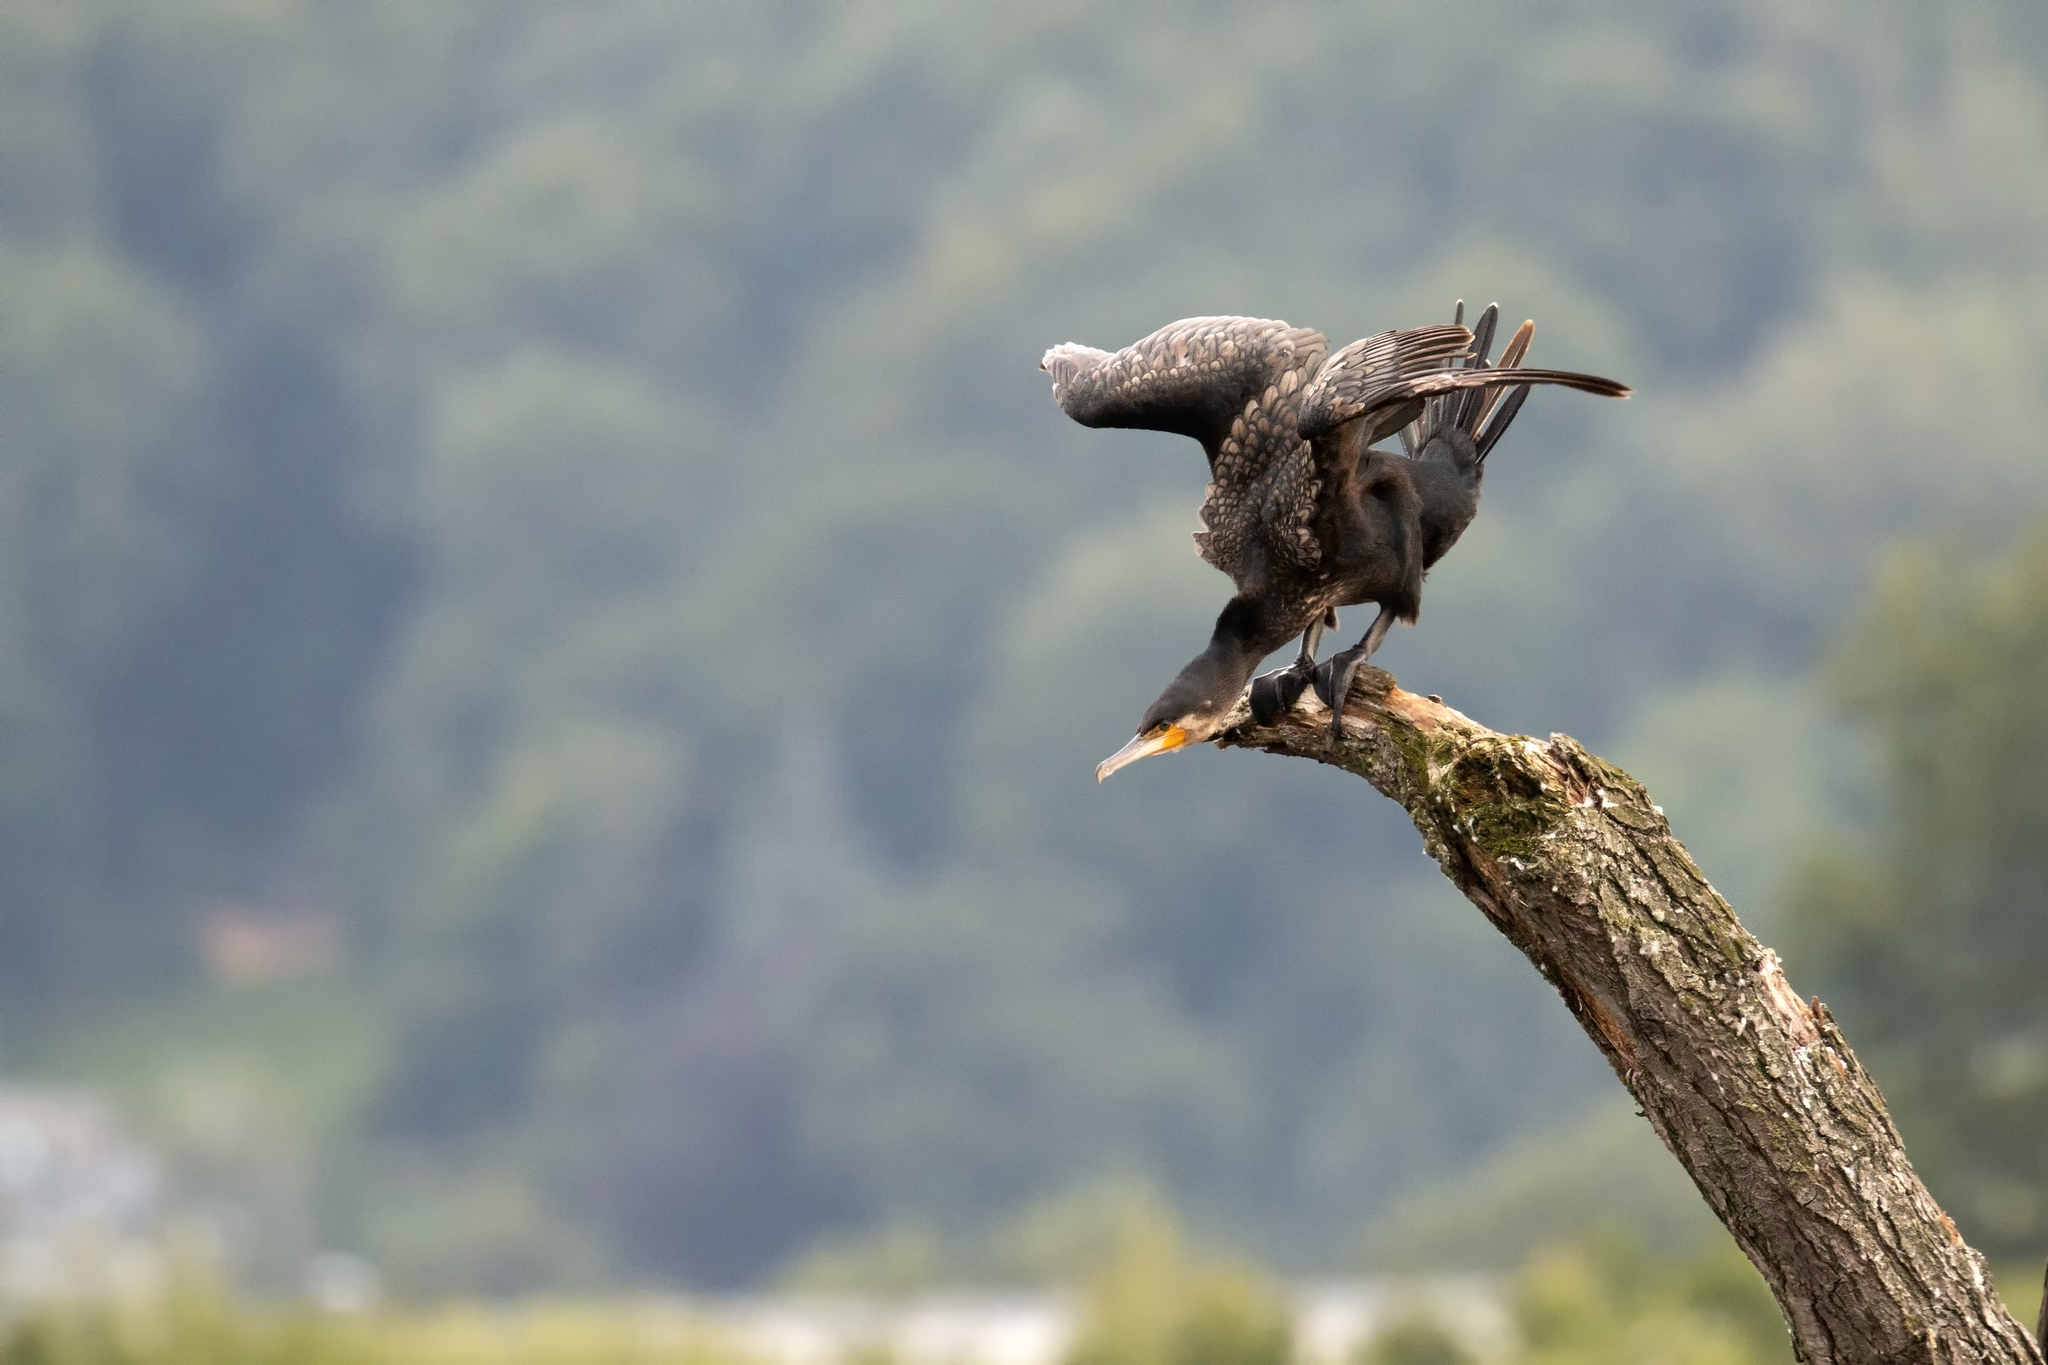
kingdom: Animalia
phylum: Chordata
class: Aves
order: Suliformes
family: Phalacrocoracidae
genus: Phalacrocorax
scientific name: Phalacrocorax carbo
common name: Great cormorant
